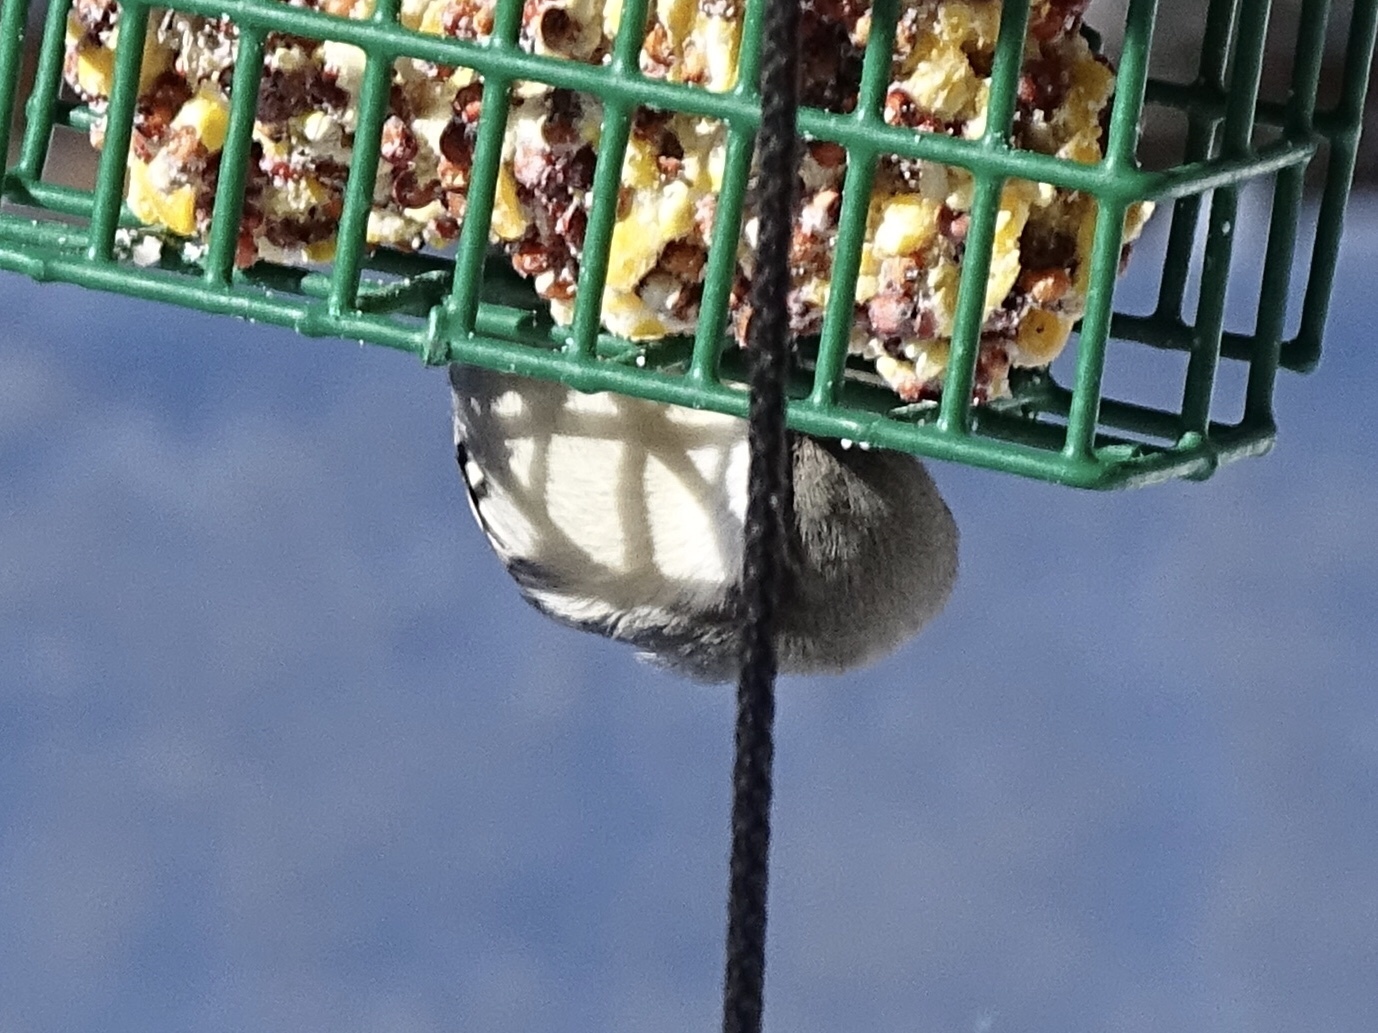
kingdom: Animalia
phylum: Chordata
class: Aves
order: Passeriformes
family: Sittidae
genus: Sitta
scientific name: Sitta pygmaea
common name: Pygmy nuthatch
